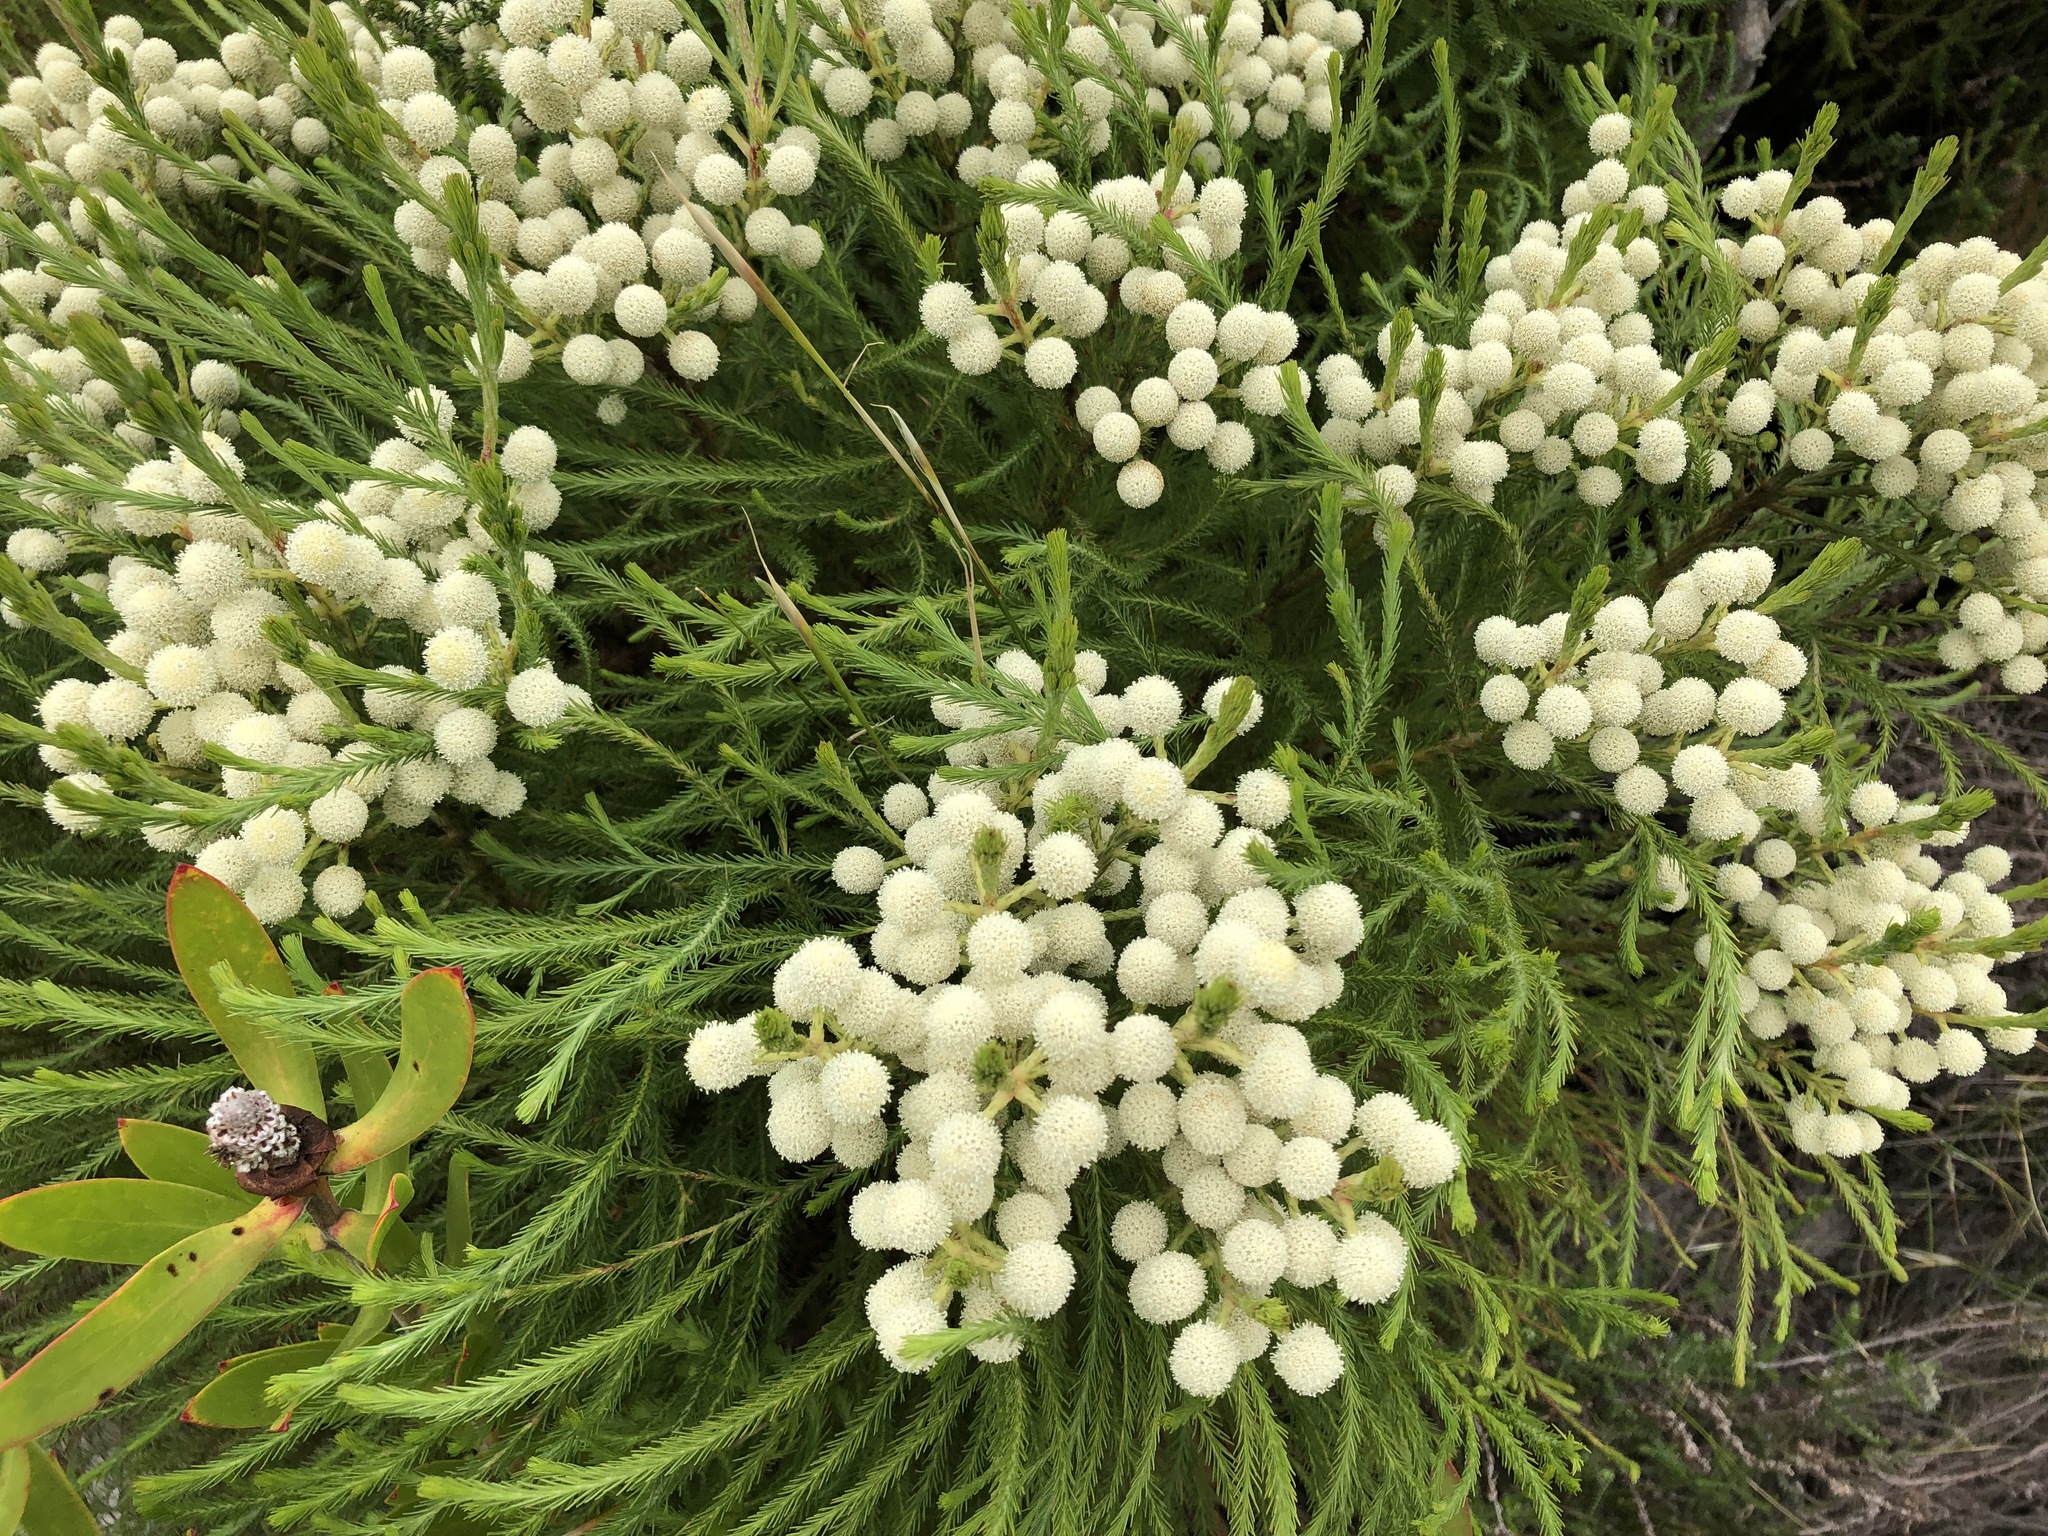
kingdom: Plantae
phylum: Tracheophyta
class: Magnoliopsida
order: Bruniales
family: Bruniaceae
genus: Berzelia
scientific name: Berzelia lanuginosa
